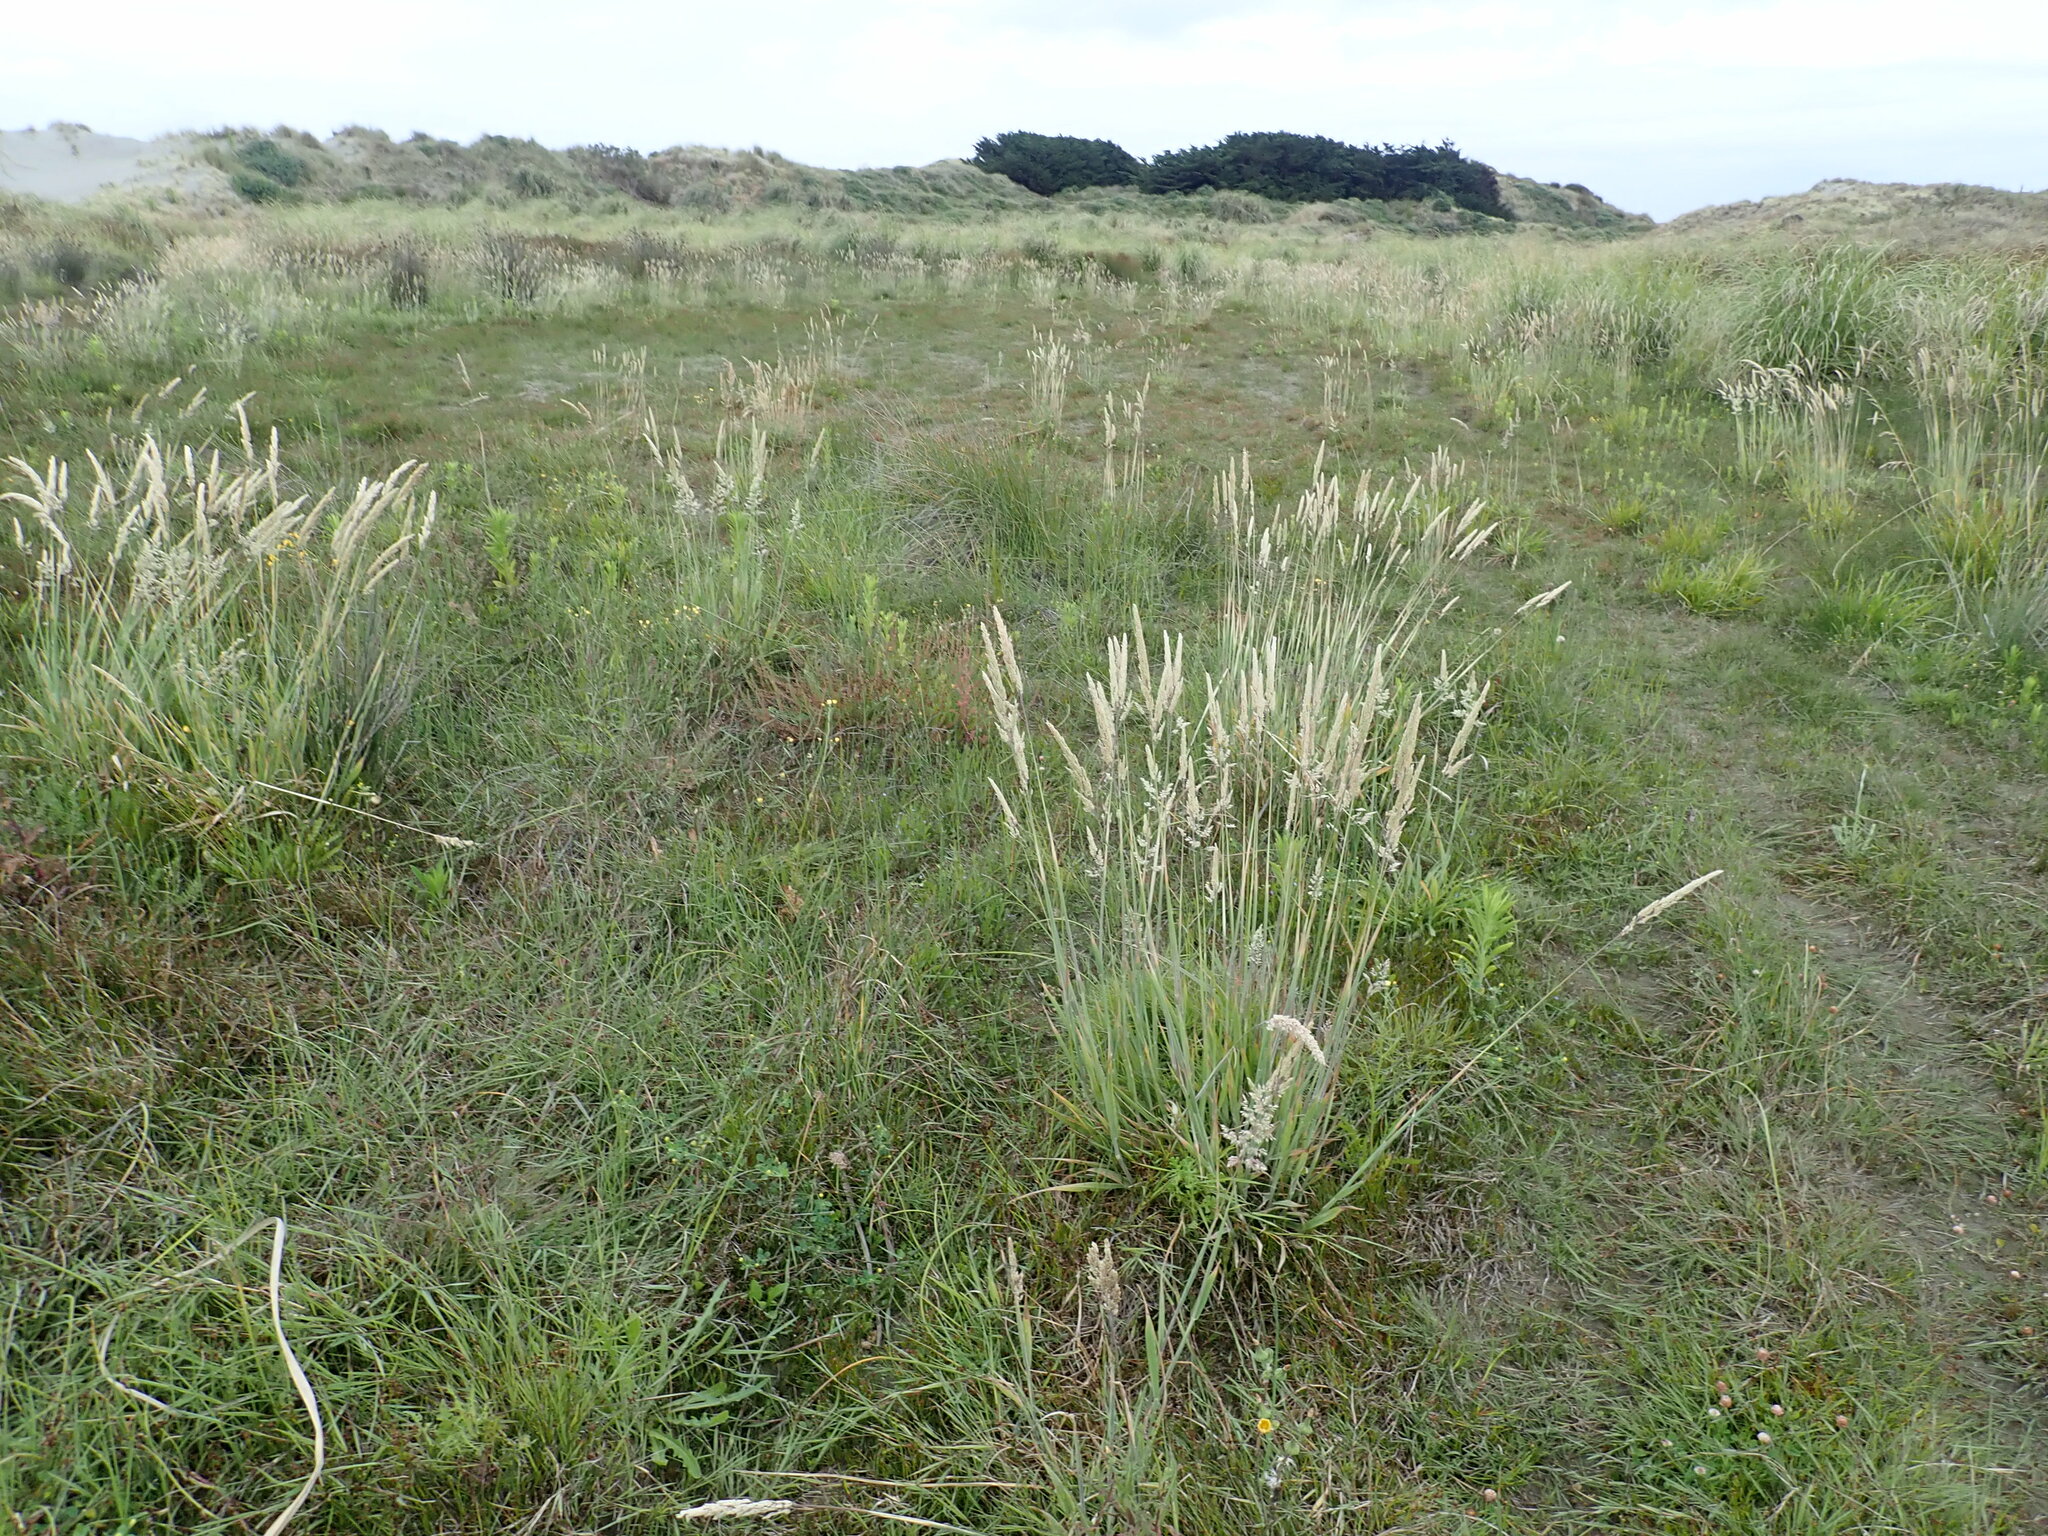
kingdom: Plantae
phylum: Tracheophyta
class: Liliopsida
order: Poales
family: Poaceae
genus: Holcus
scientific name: Holcus lanatus
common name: Yorkshire-fog
